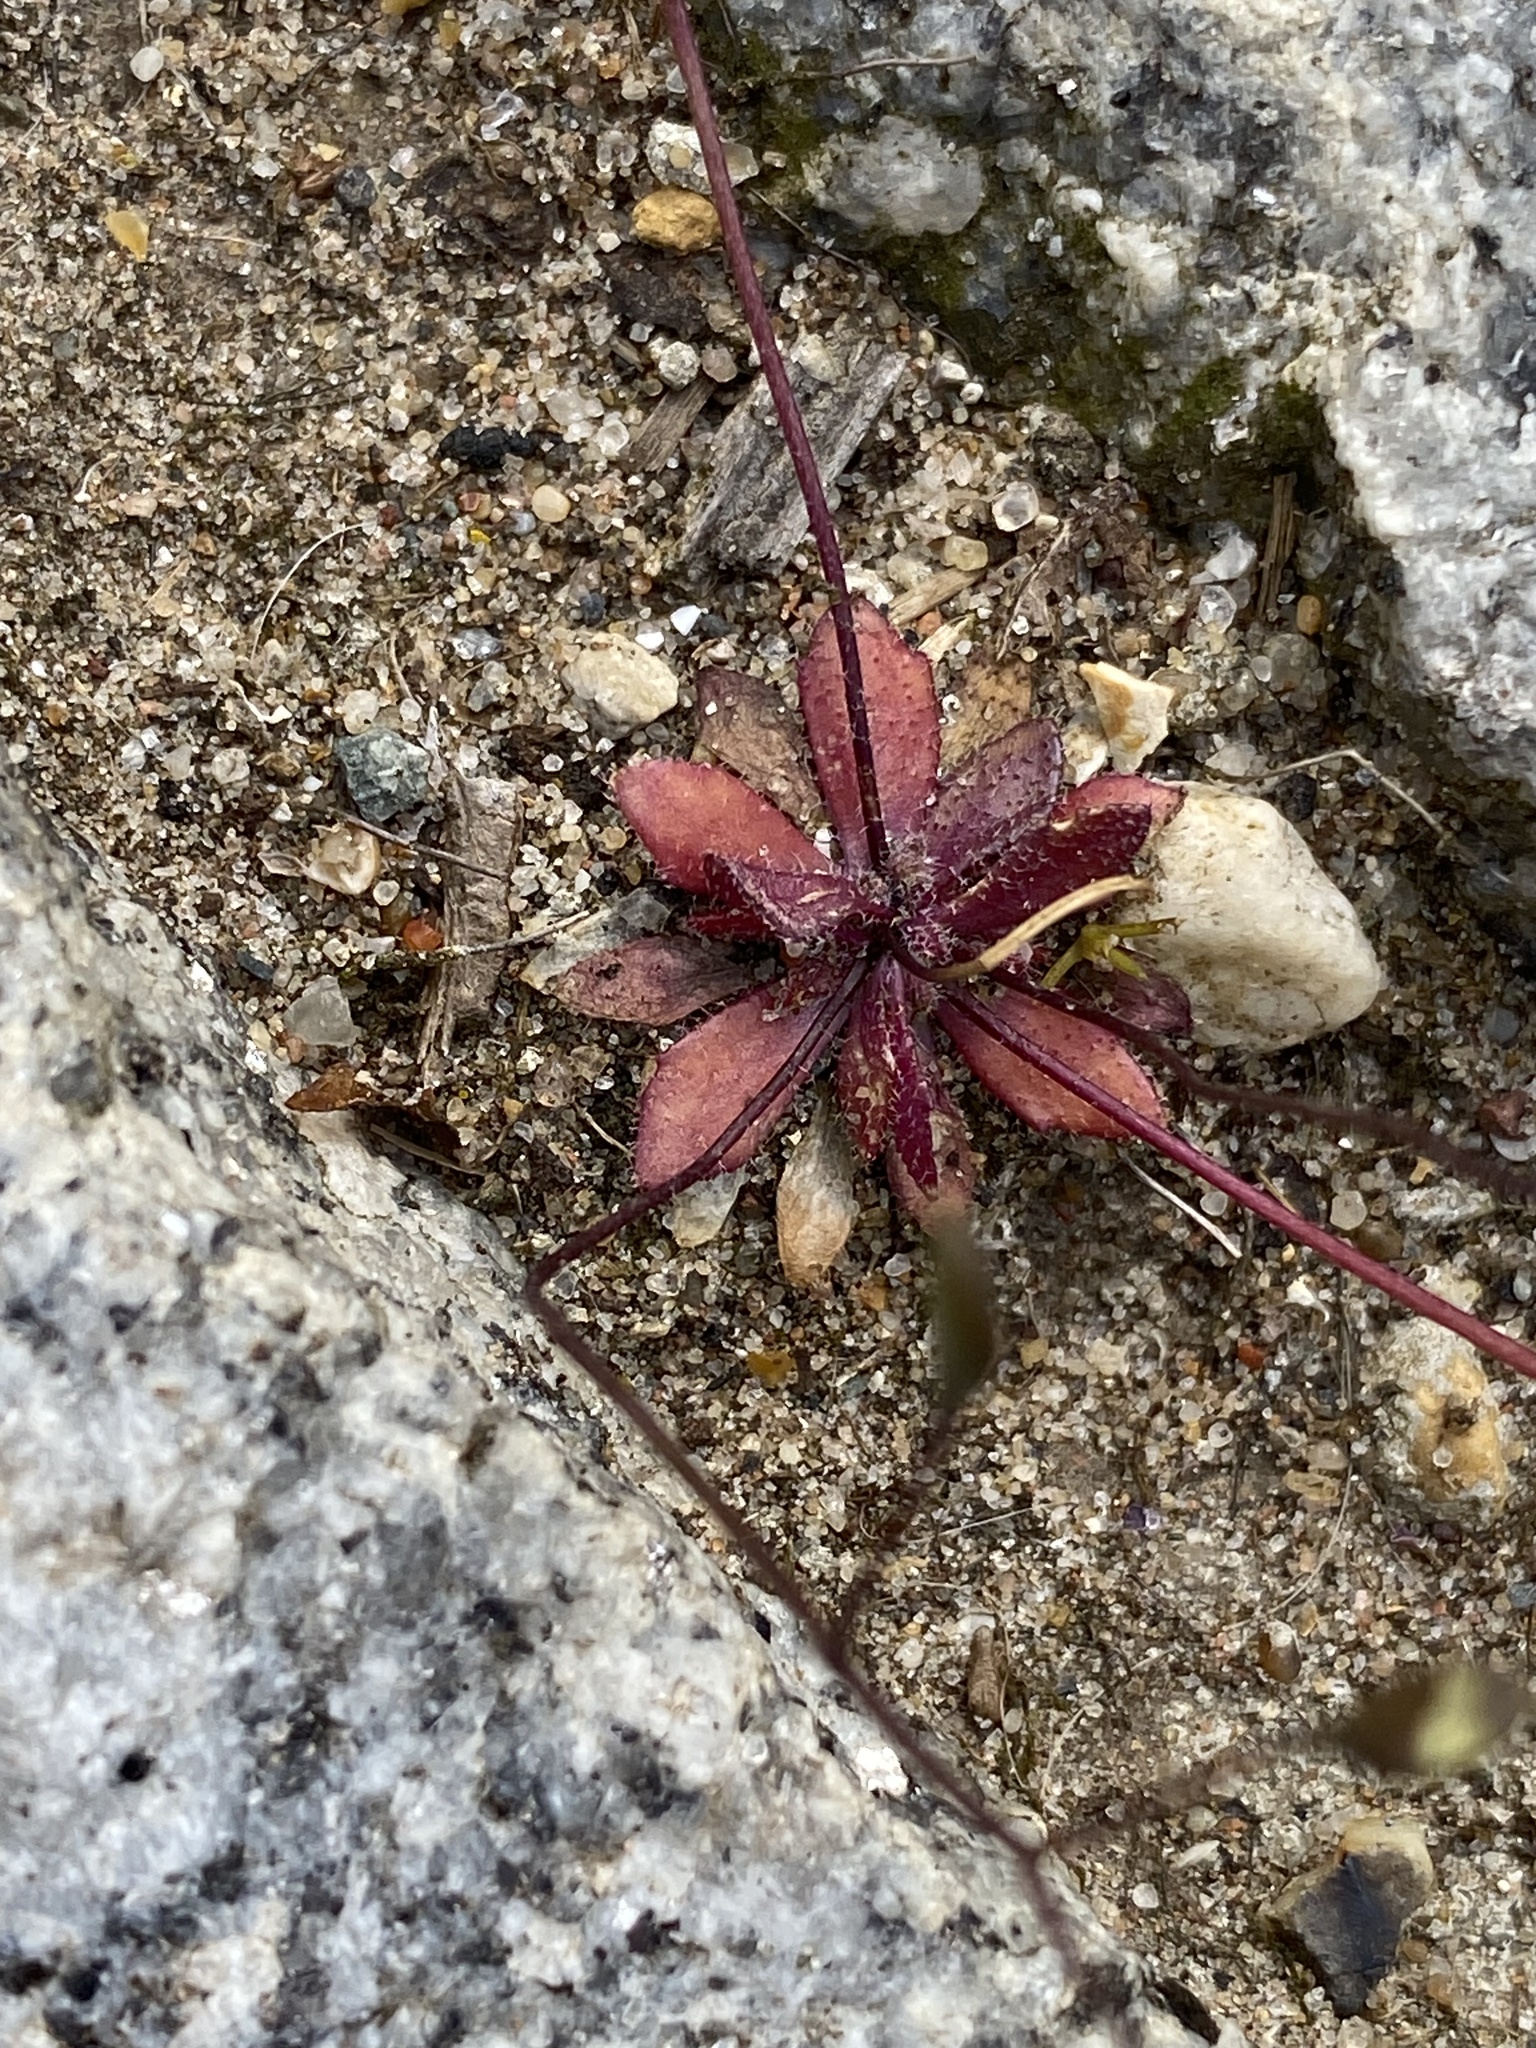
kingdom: Plantae
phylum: Tracheophyta
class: Magnoliopsida
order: Brassicales
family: Brassicaceae
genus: Draba
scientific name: Draba verna
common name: Spring draba
